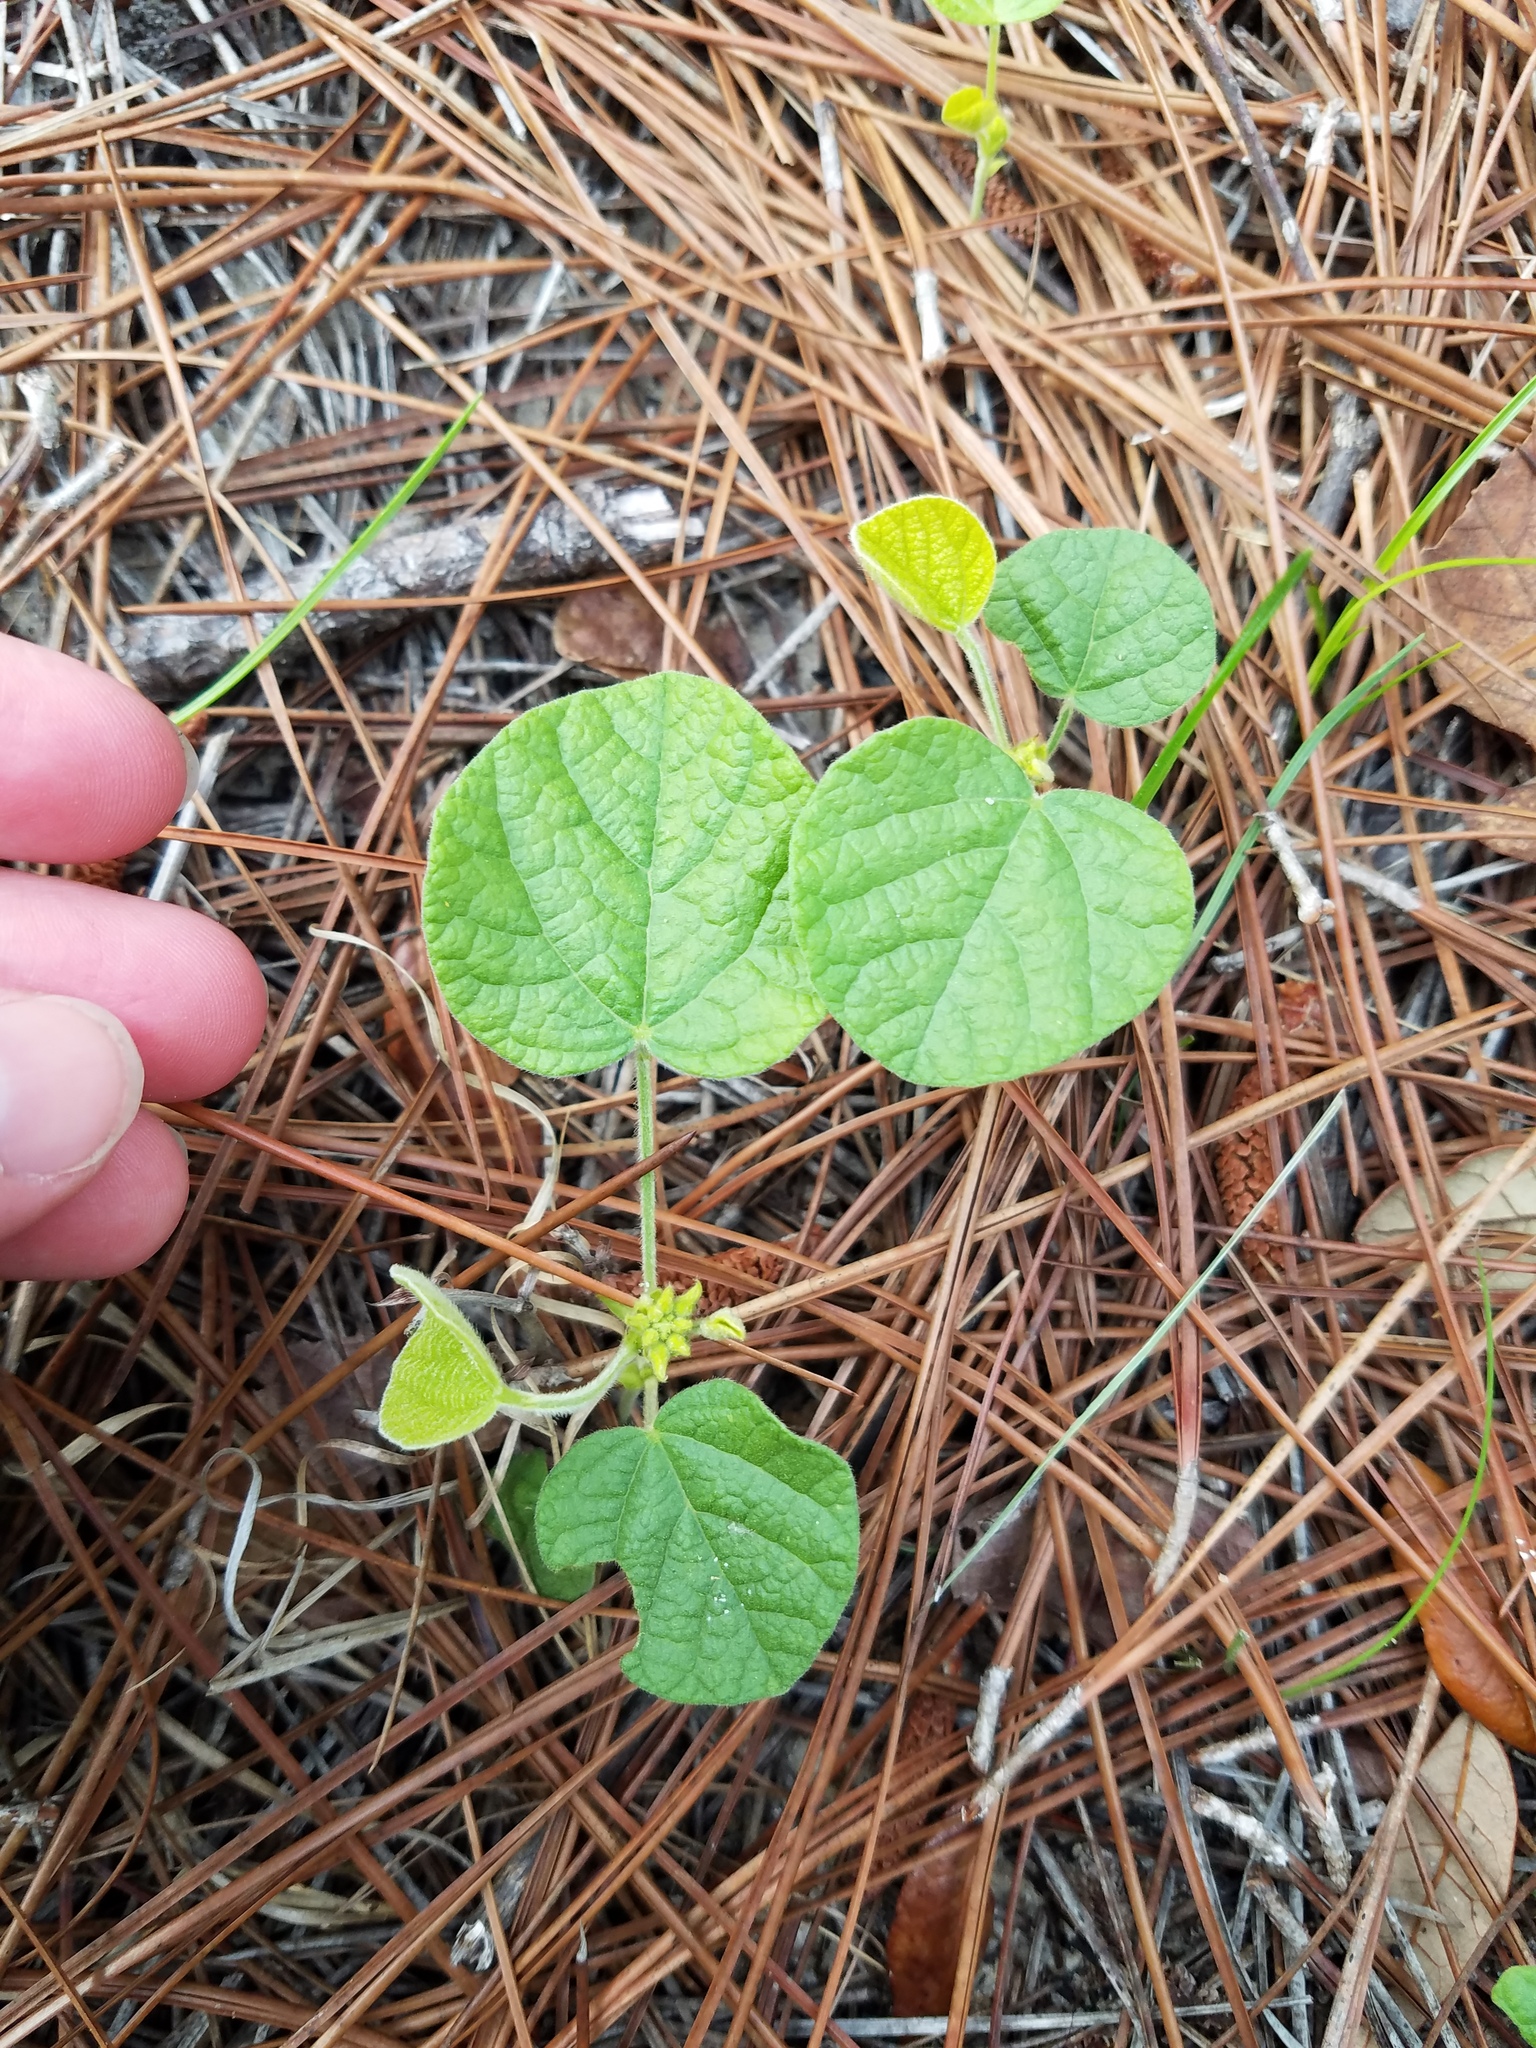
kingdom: Plantae
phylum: Tracheophyta
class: Magnoliopsida
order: Fabales
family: Fabaceae
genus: Rhynchosia
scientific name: Rhynchosia reniformis
